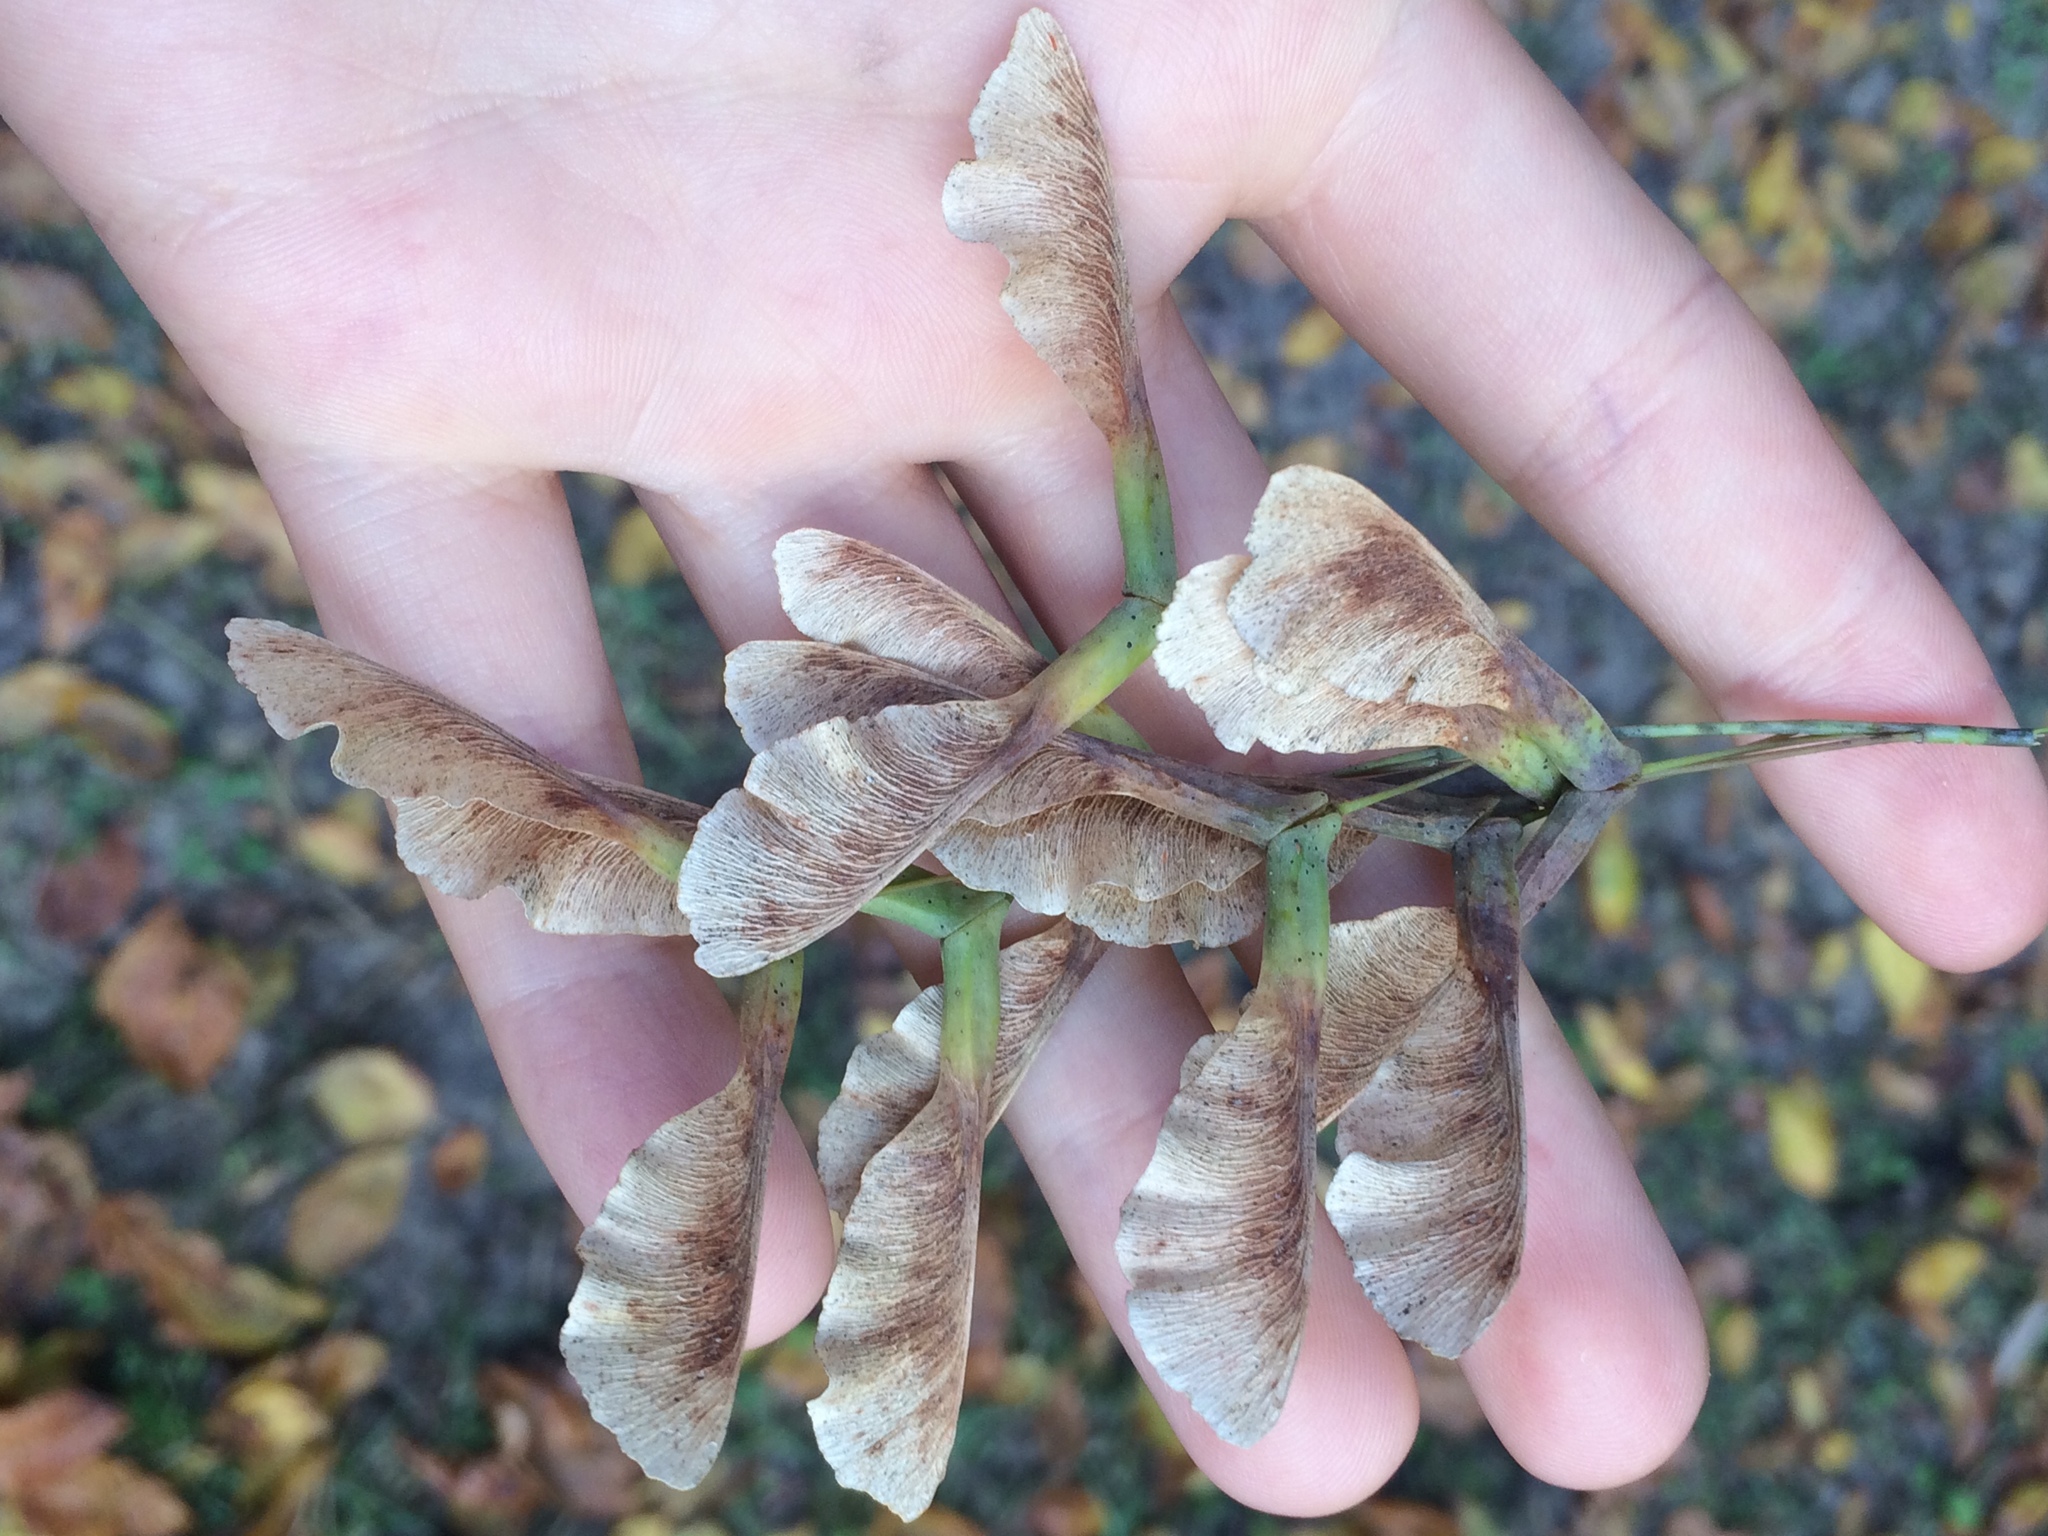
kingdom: Plantae
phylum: Tracheophyta
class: Magnoliopsida
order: Sapindales
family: Sapindaceae
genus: Acer
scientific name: Acer negundo
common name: Ashleaf maple
